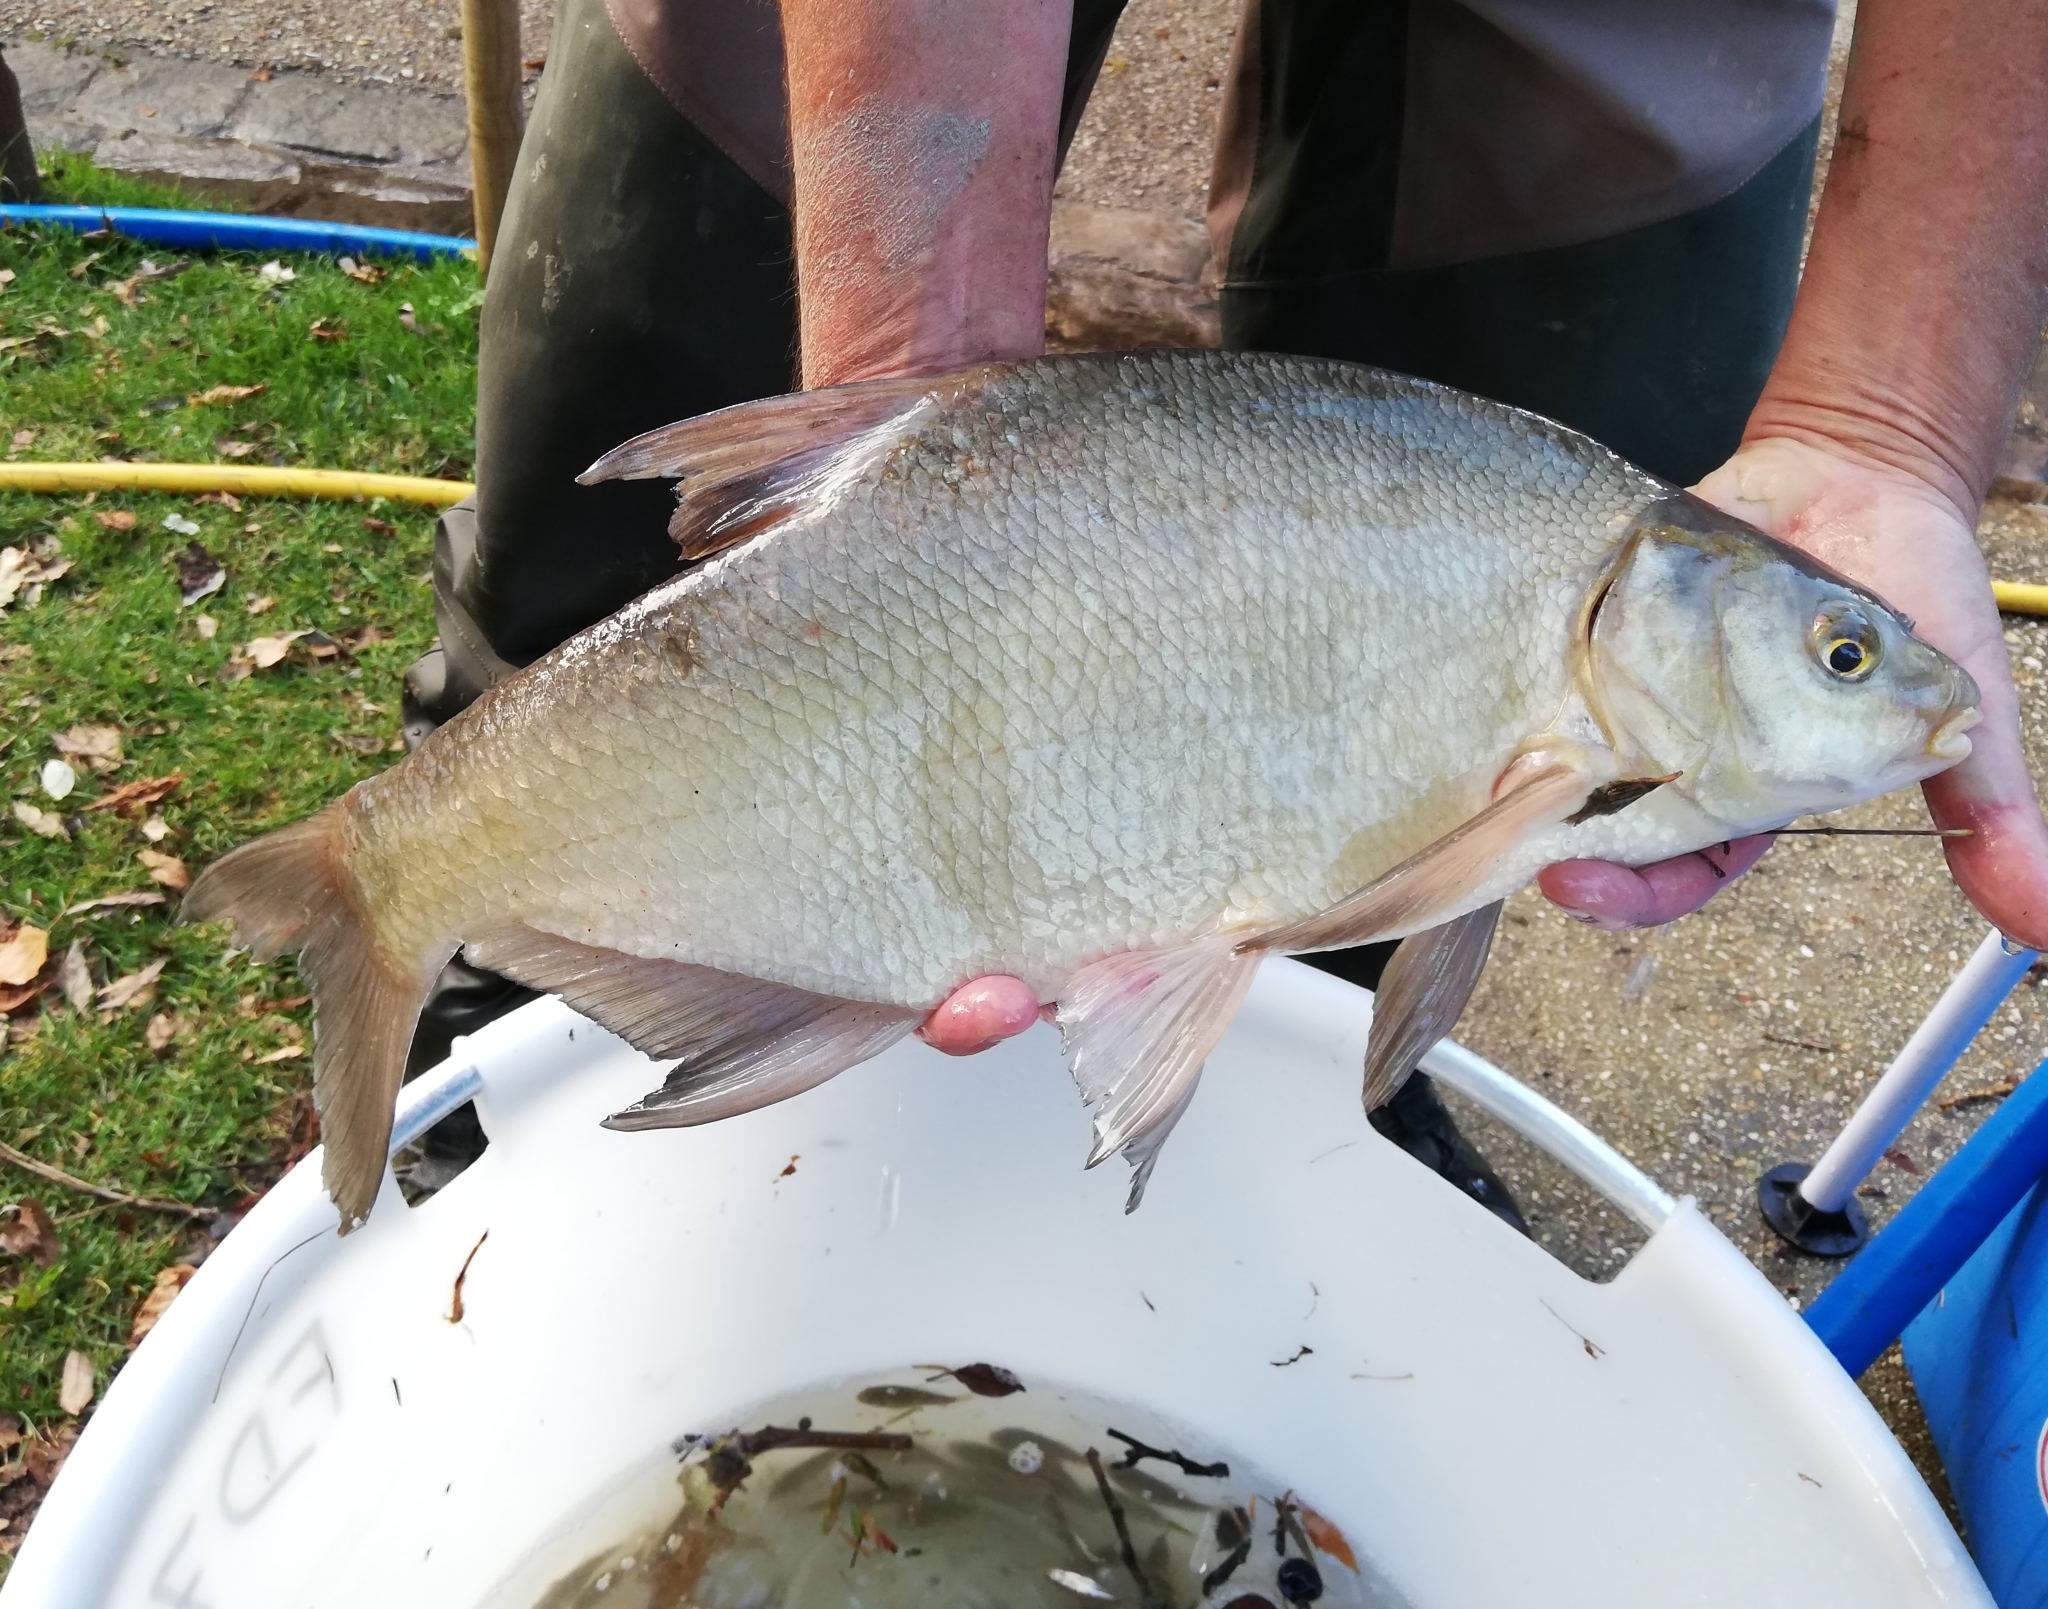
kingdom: Animalia
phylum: Chordata
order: Cypriniformes
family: Cyprinidae
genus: Abramis
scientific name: Abramis brama
